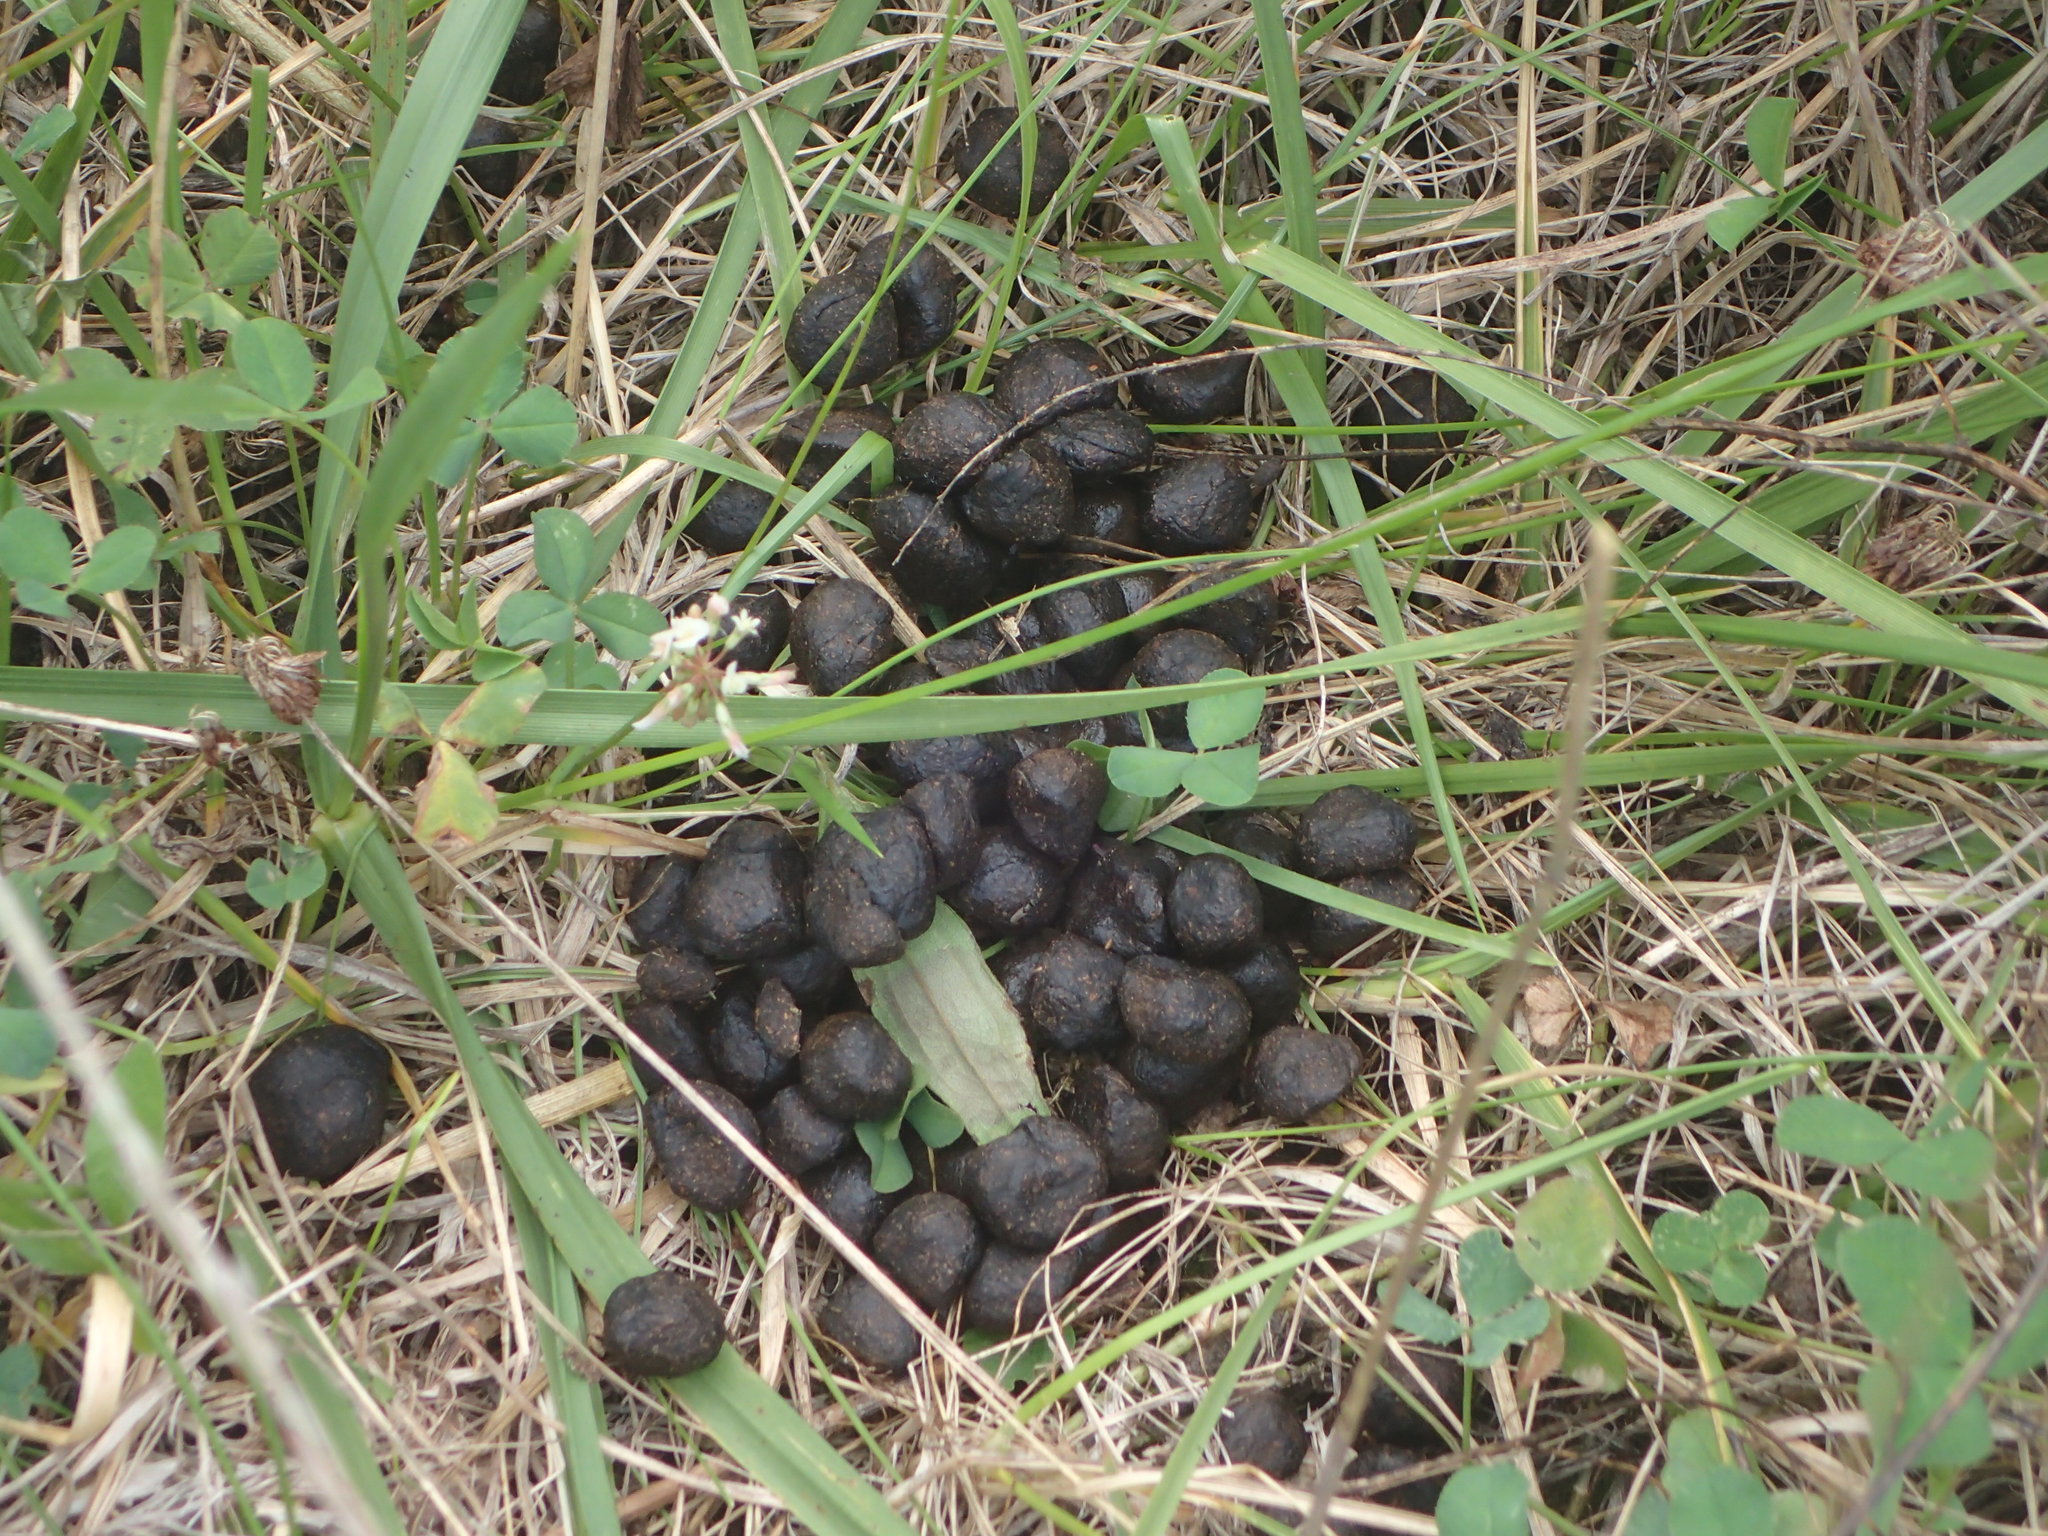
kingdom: Animalia
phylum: Chordata
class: Mammalia
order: Artiodactyla
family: Cervidae
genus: Odocoileus
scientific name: Odocoileus virginianus
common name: White-tailed deer
